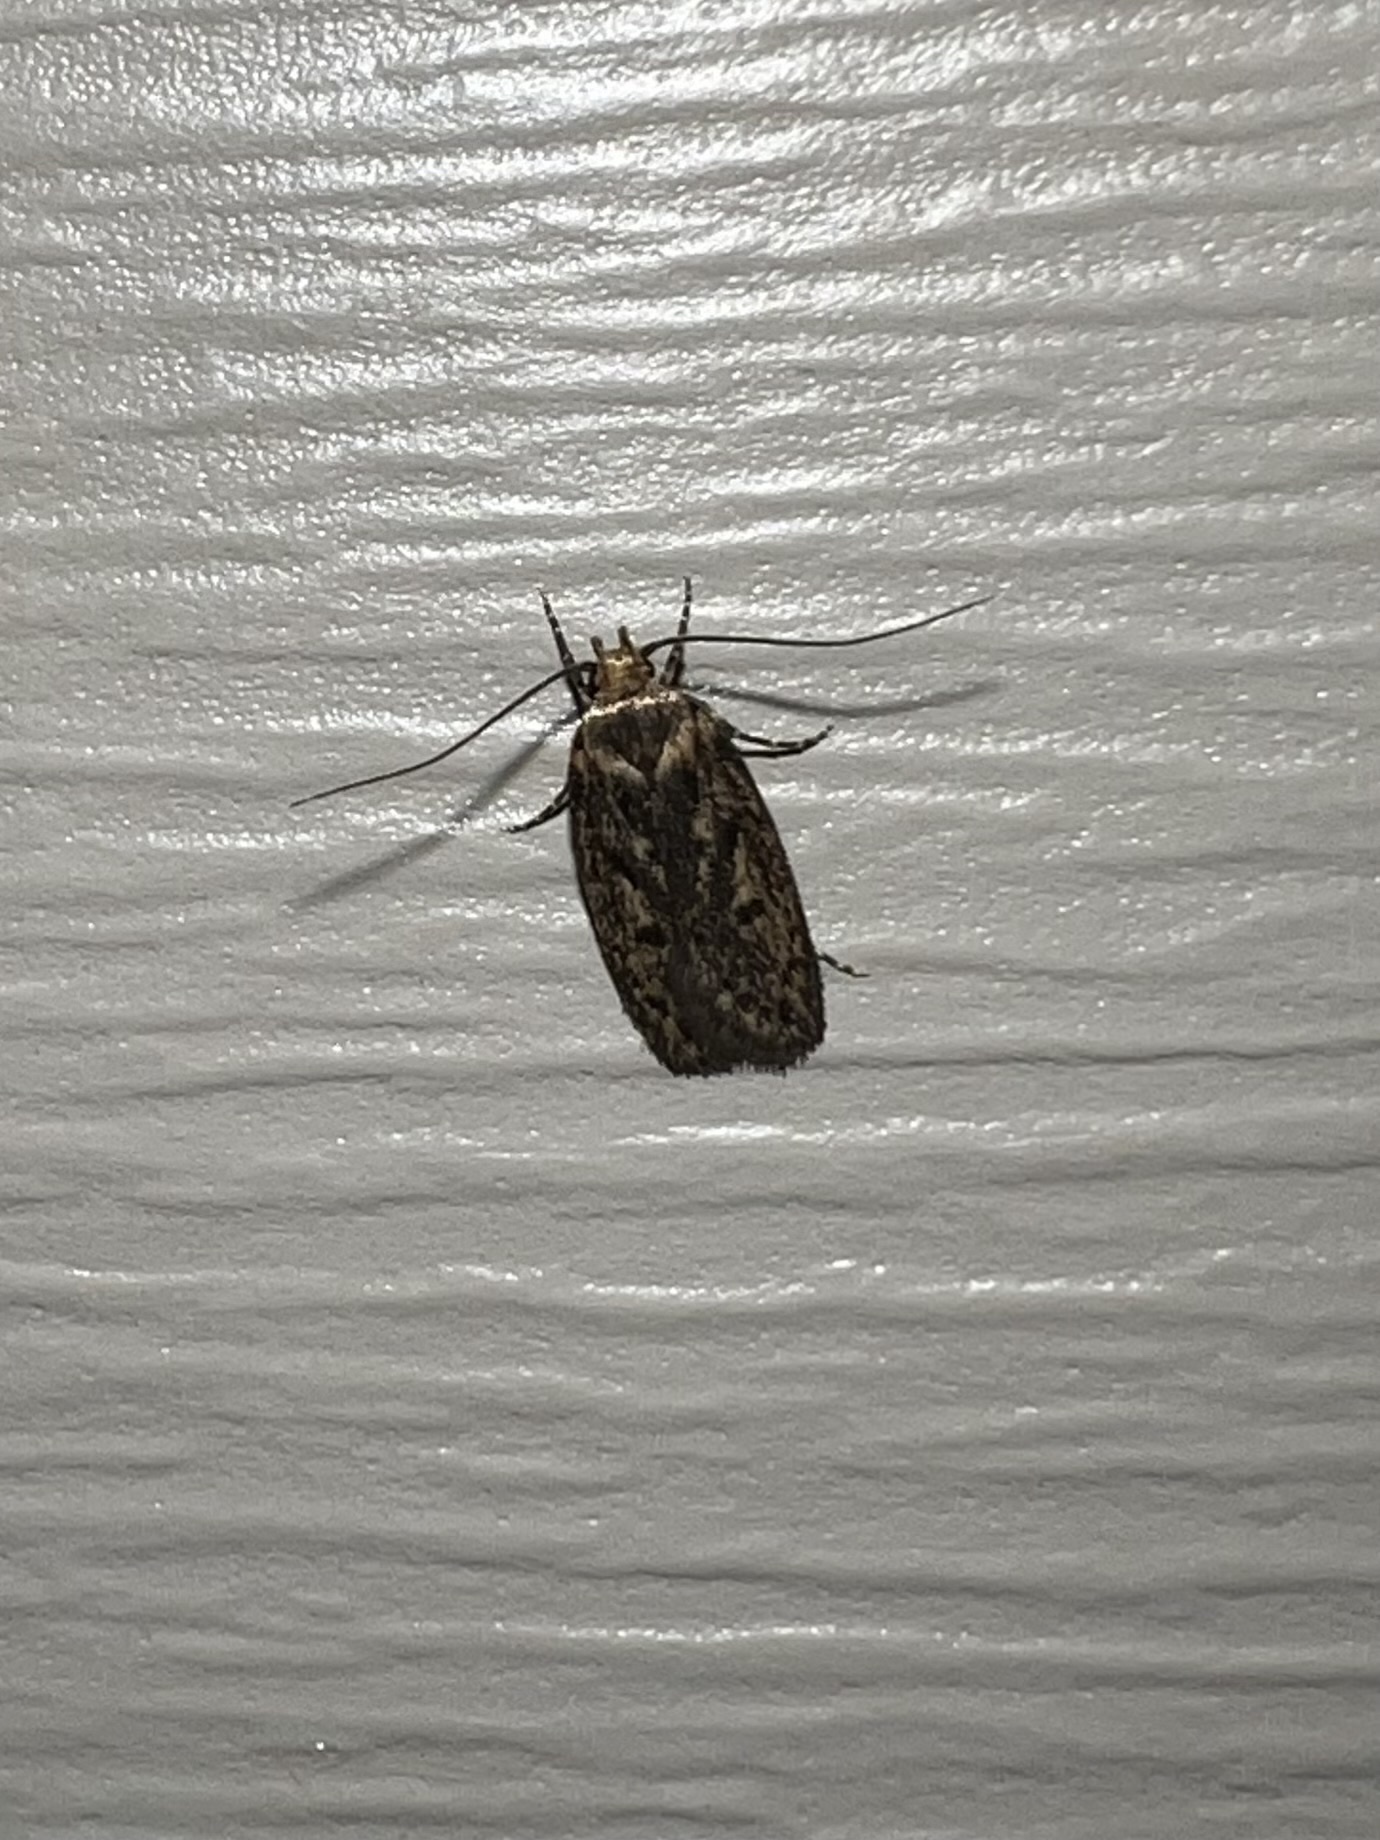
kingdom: Animalia
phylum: Arthropoda
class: Insecta
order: Lepidoptera
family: Oecophoridae
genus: Hofmannophila
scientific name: Hofmannophila pseudospretella
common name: Brown house moth
